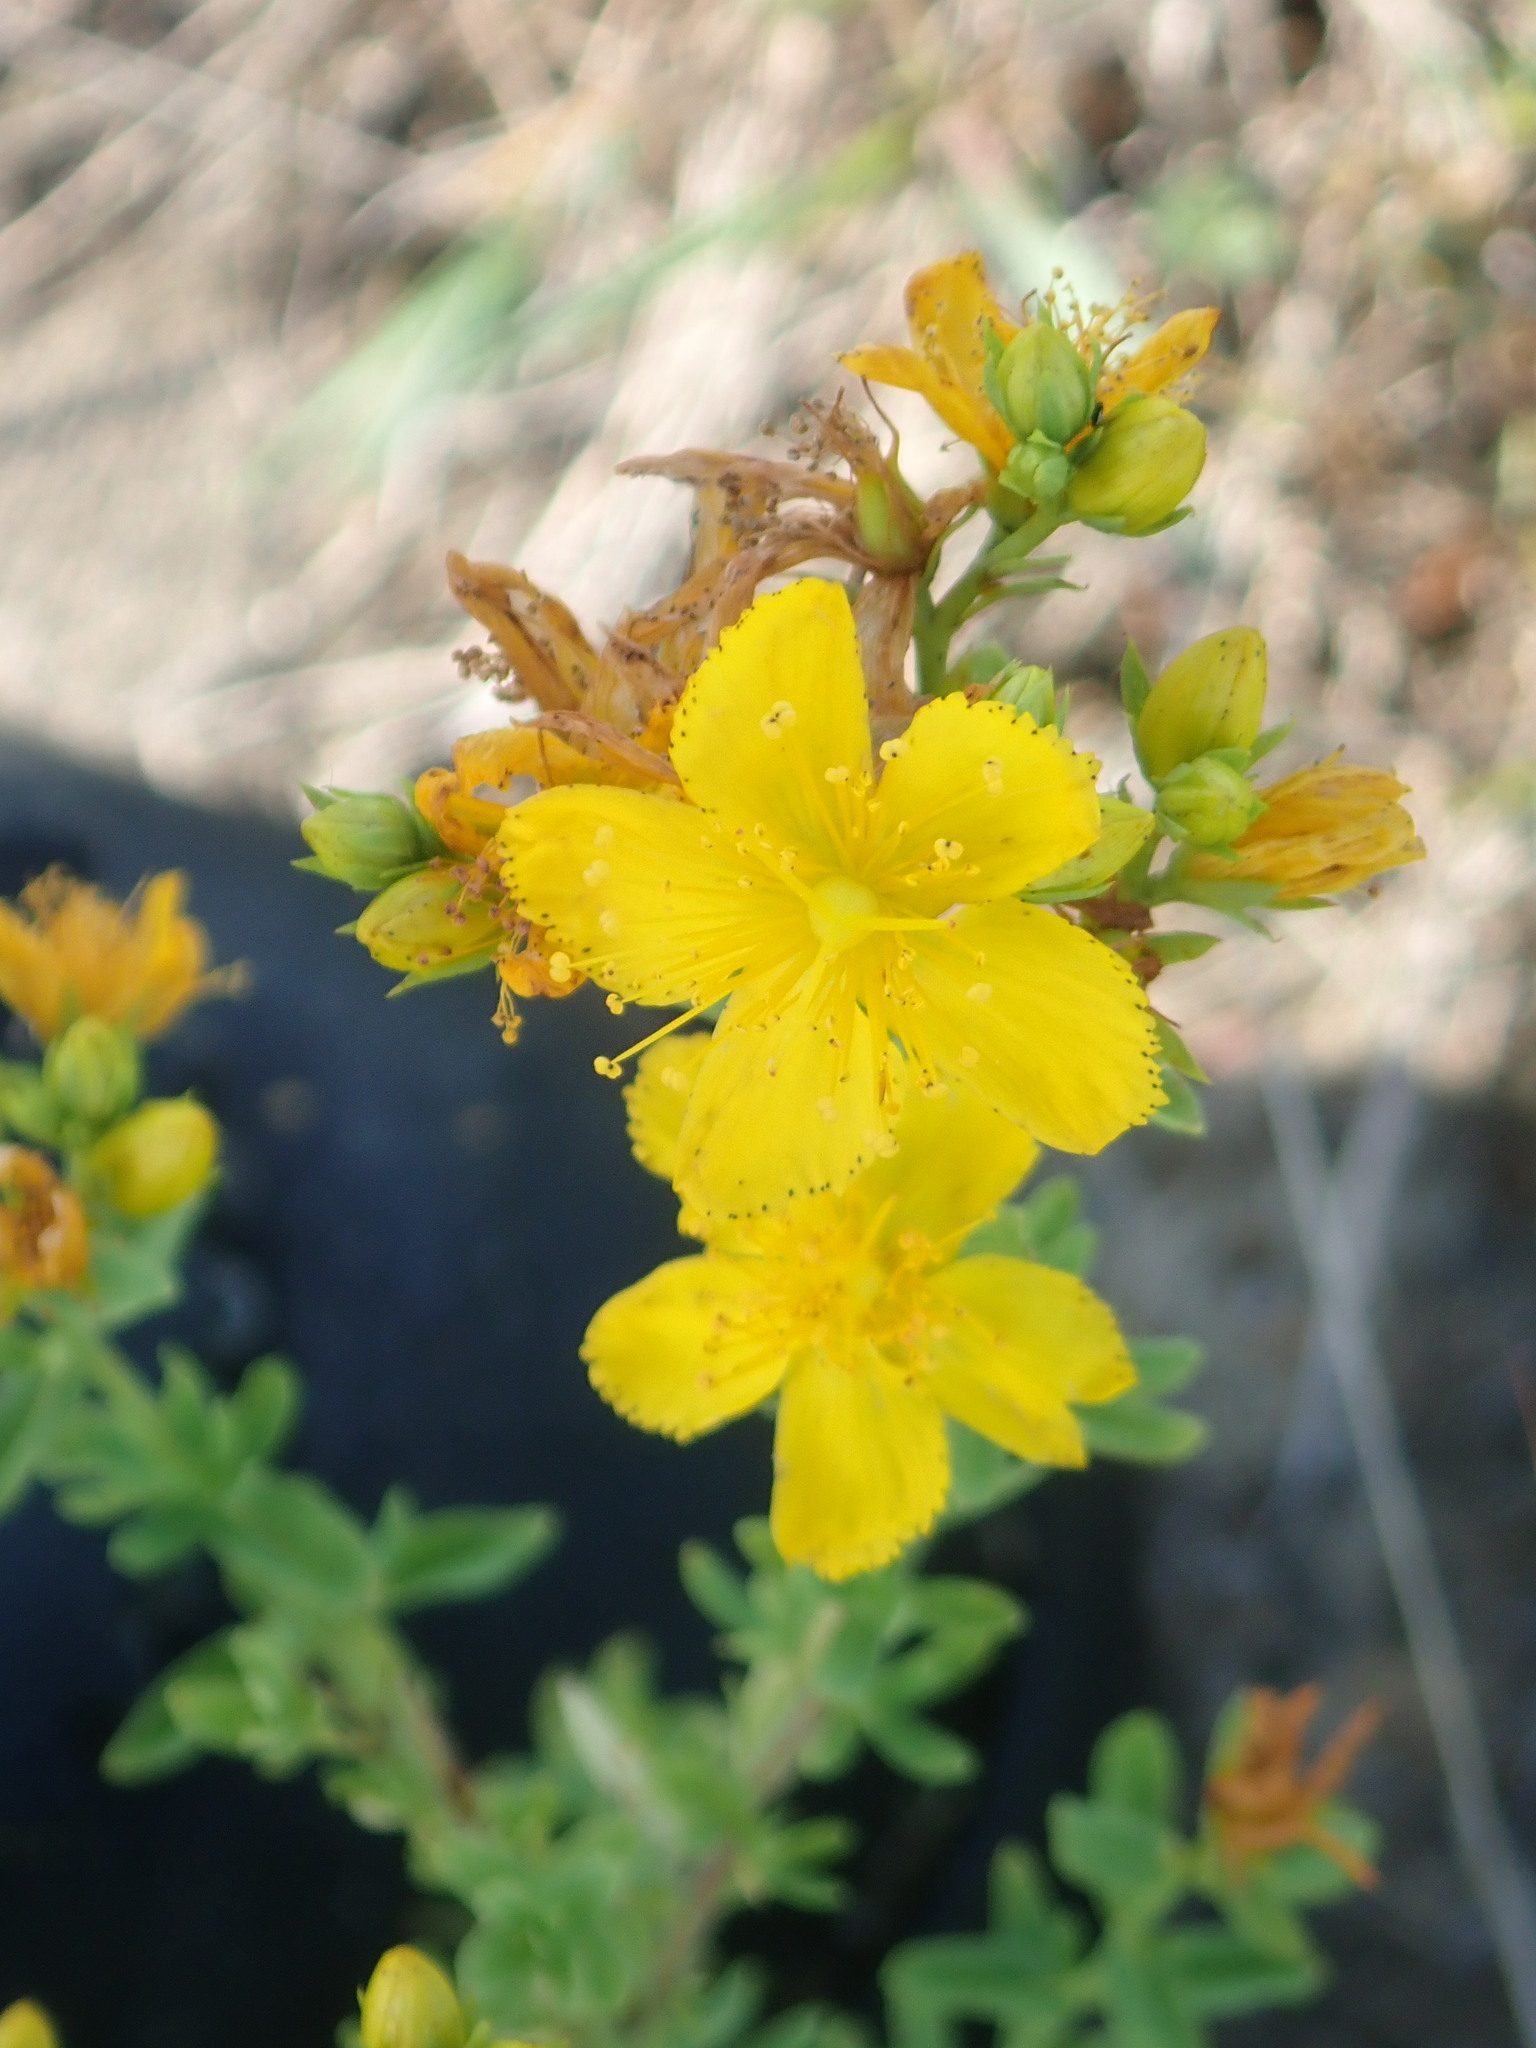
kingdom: Plantae
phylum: Tracheophyta
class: Magnoliopsida
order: Malpighiales
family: Hypericaceae
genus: Hypericum
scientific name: Hypericum perforatum
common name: Common st. johnswort
